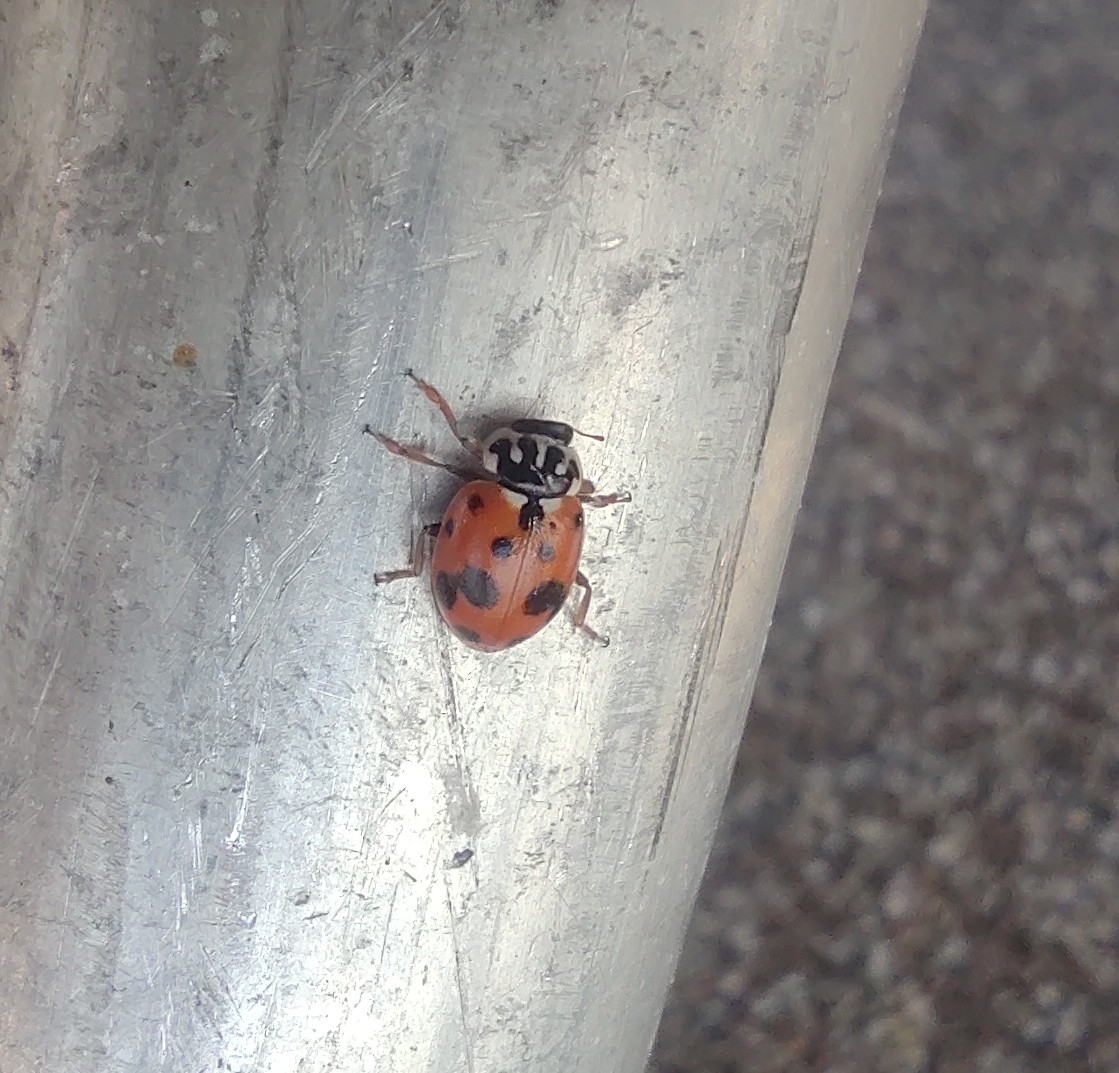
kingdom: Animalia
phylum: Arthropoda
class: Insecta
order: Coleoptera
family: Coccinellidae
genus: Hippodamia
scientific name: Hippodamia variegata
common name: Ladybird beetle
